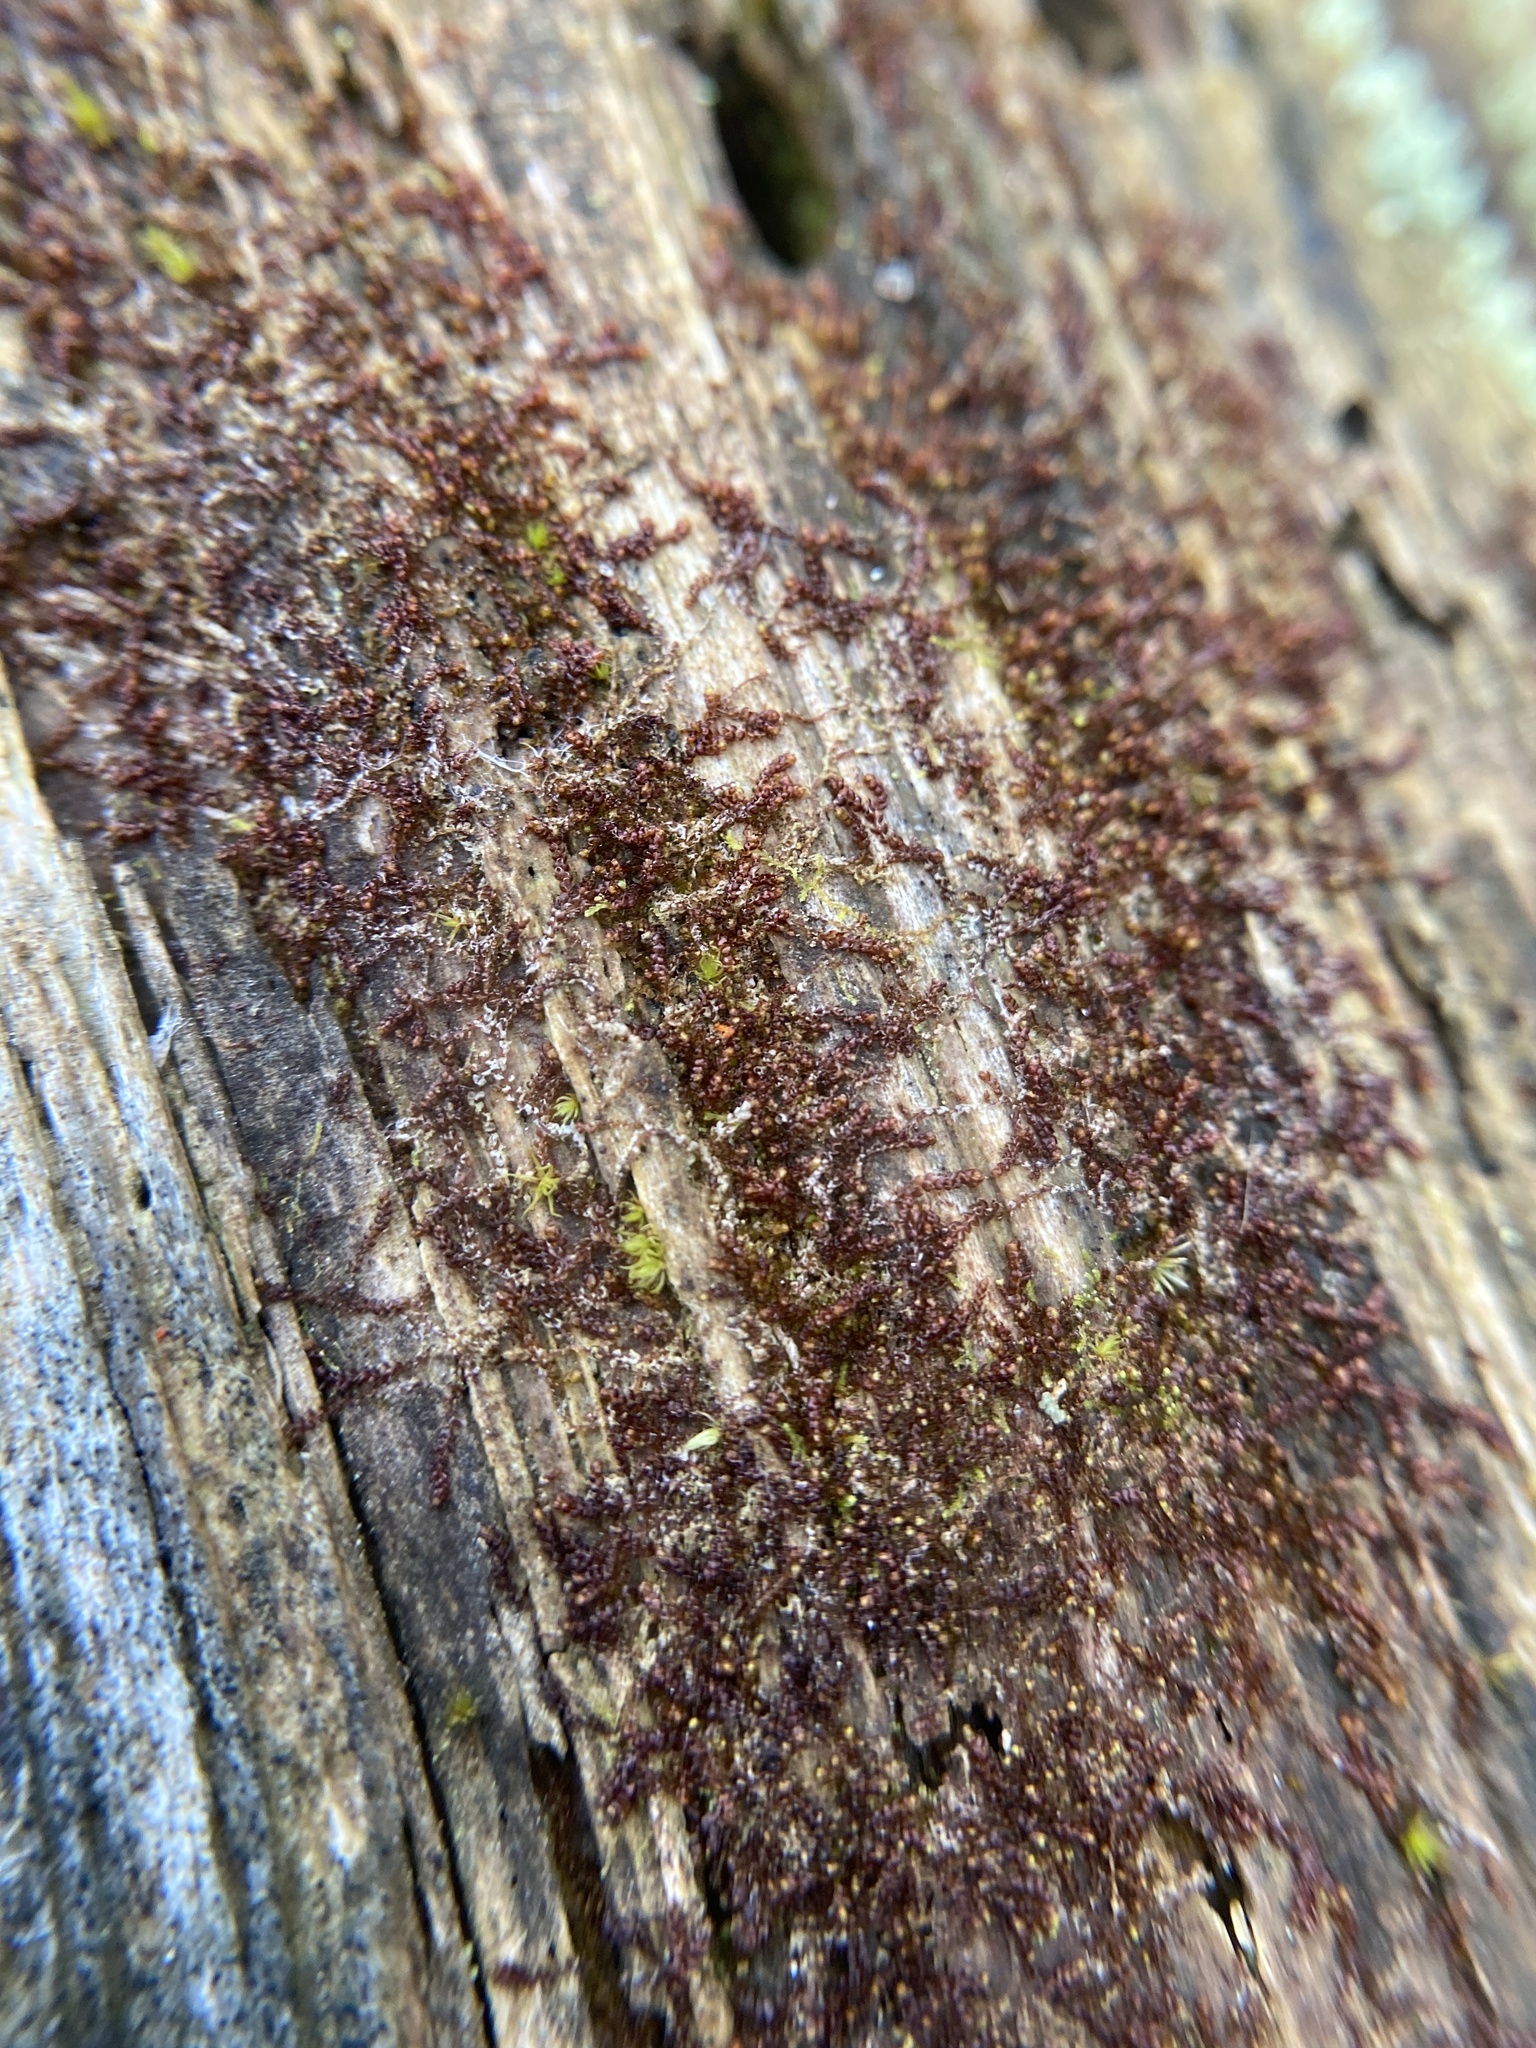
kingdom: Plantae
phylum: Marchantiophyta
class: Jungermanniopsida
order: Jungermanniales
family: Cephaloziaceae
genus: Nowellia
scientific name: Nowellia curvifolia
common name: Wood rustwort
